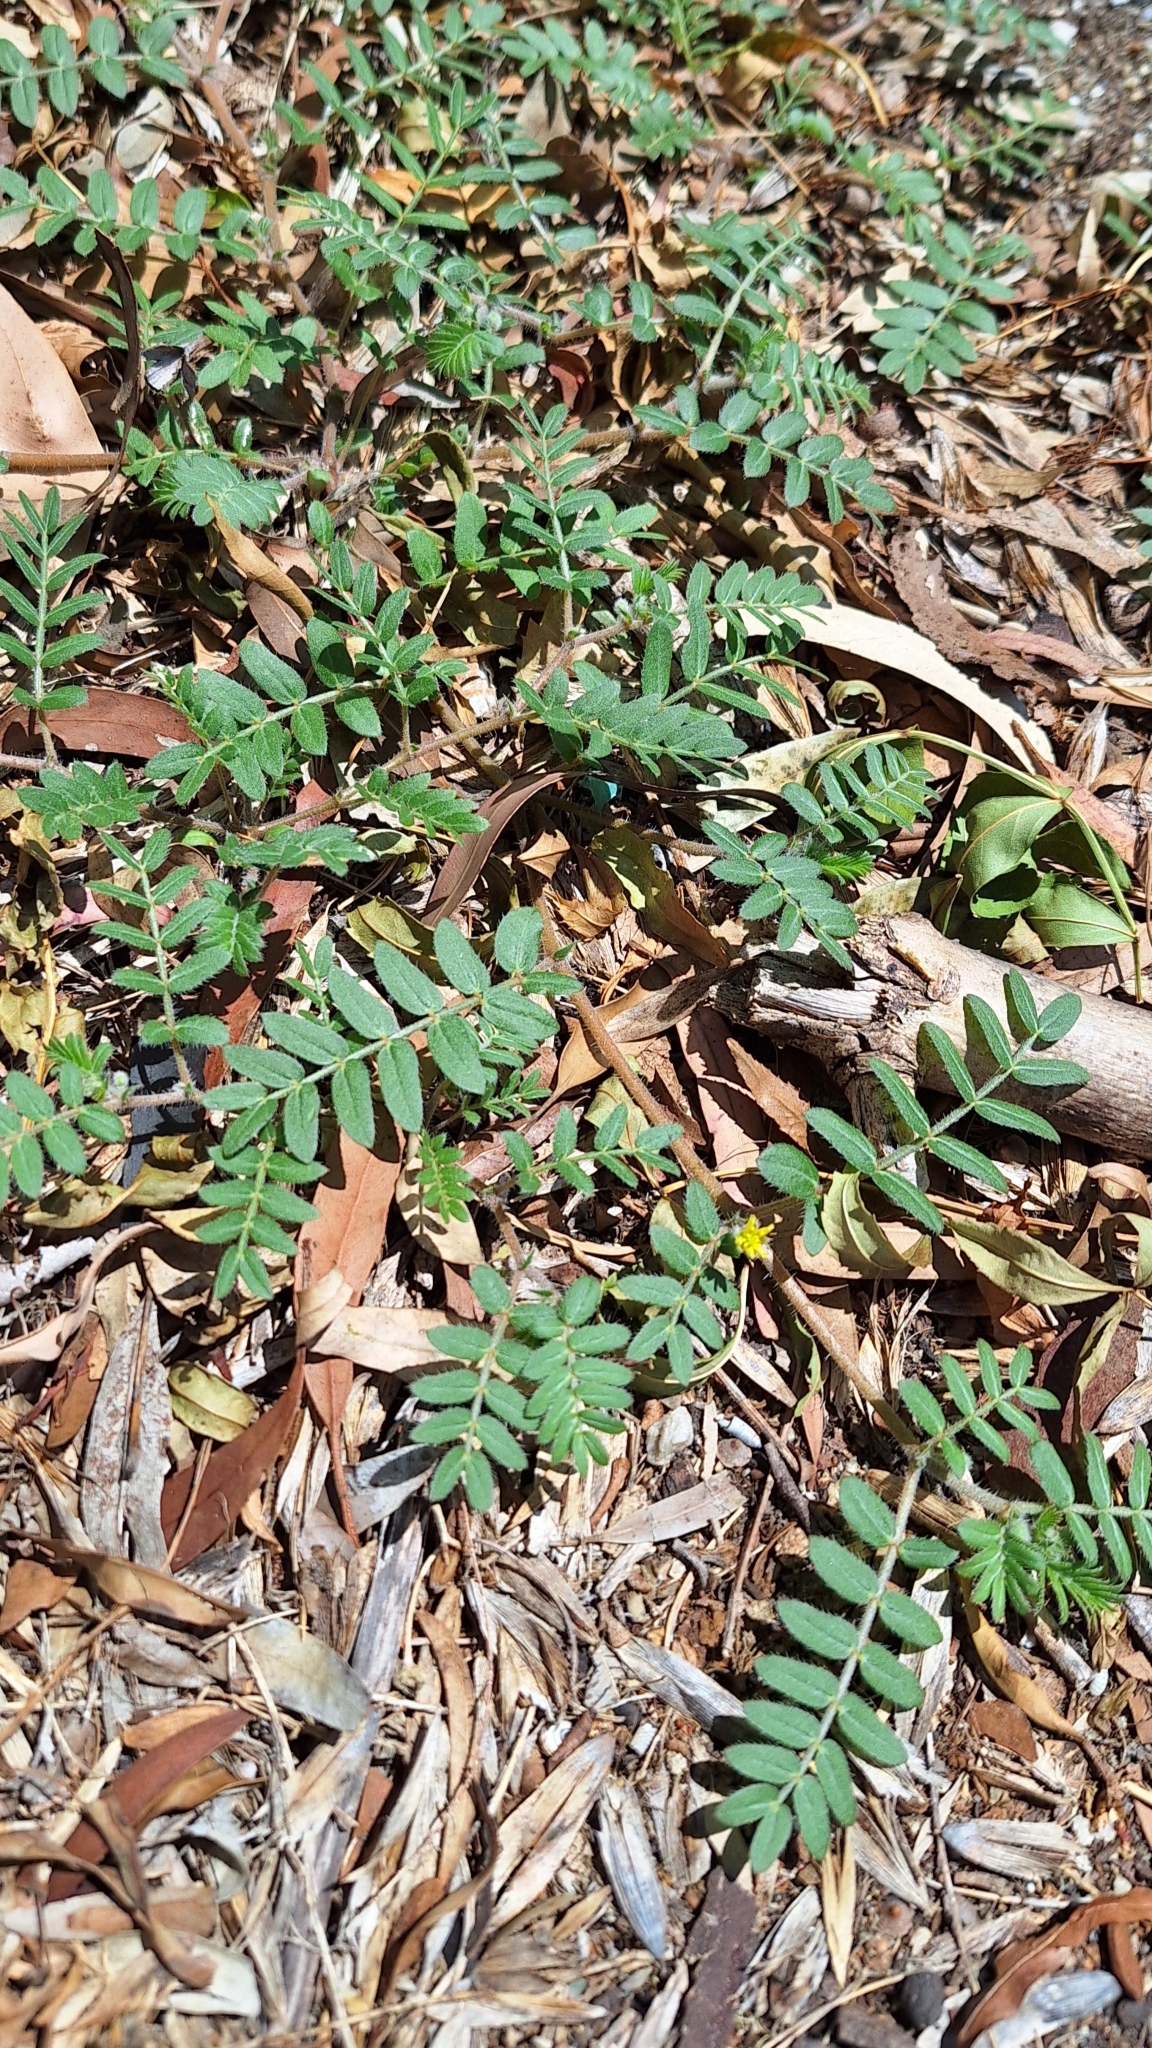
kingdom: Plantae
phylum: Tracheophyta
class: Magnoliopsida
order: Zygophyllales
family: Zygophyllaceae
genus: Tribulus
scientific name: Tribulus terrestris
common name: Puncturevine
